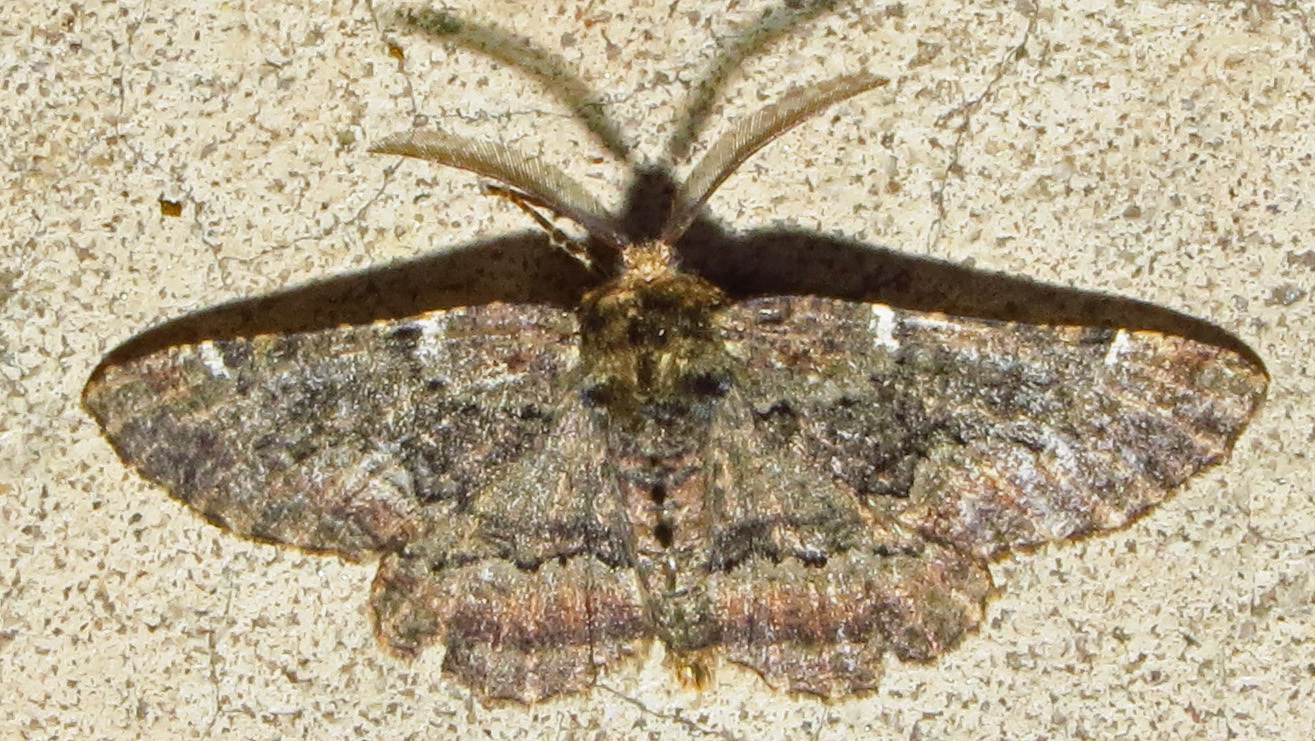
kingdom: Animalia
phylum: Arthropoda
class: Insecta
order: Lepidoptera
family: Geometridae
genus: Phaeoura
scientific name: Phaeoura quernaria
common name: Oak beauty
